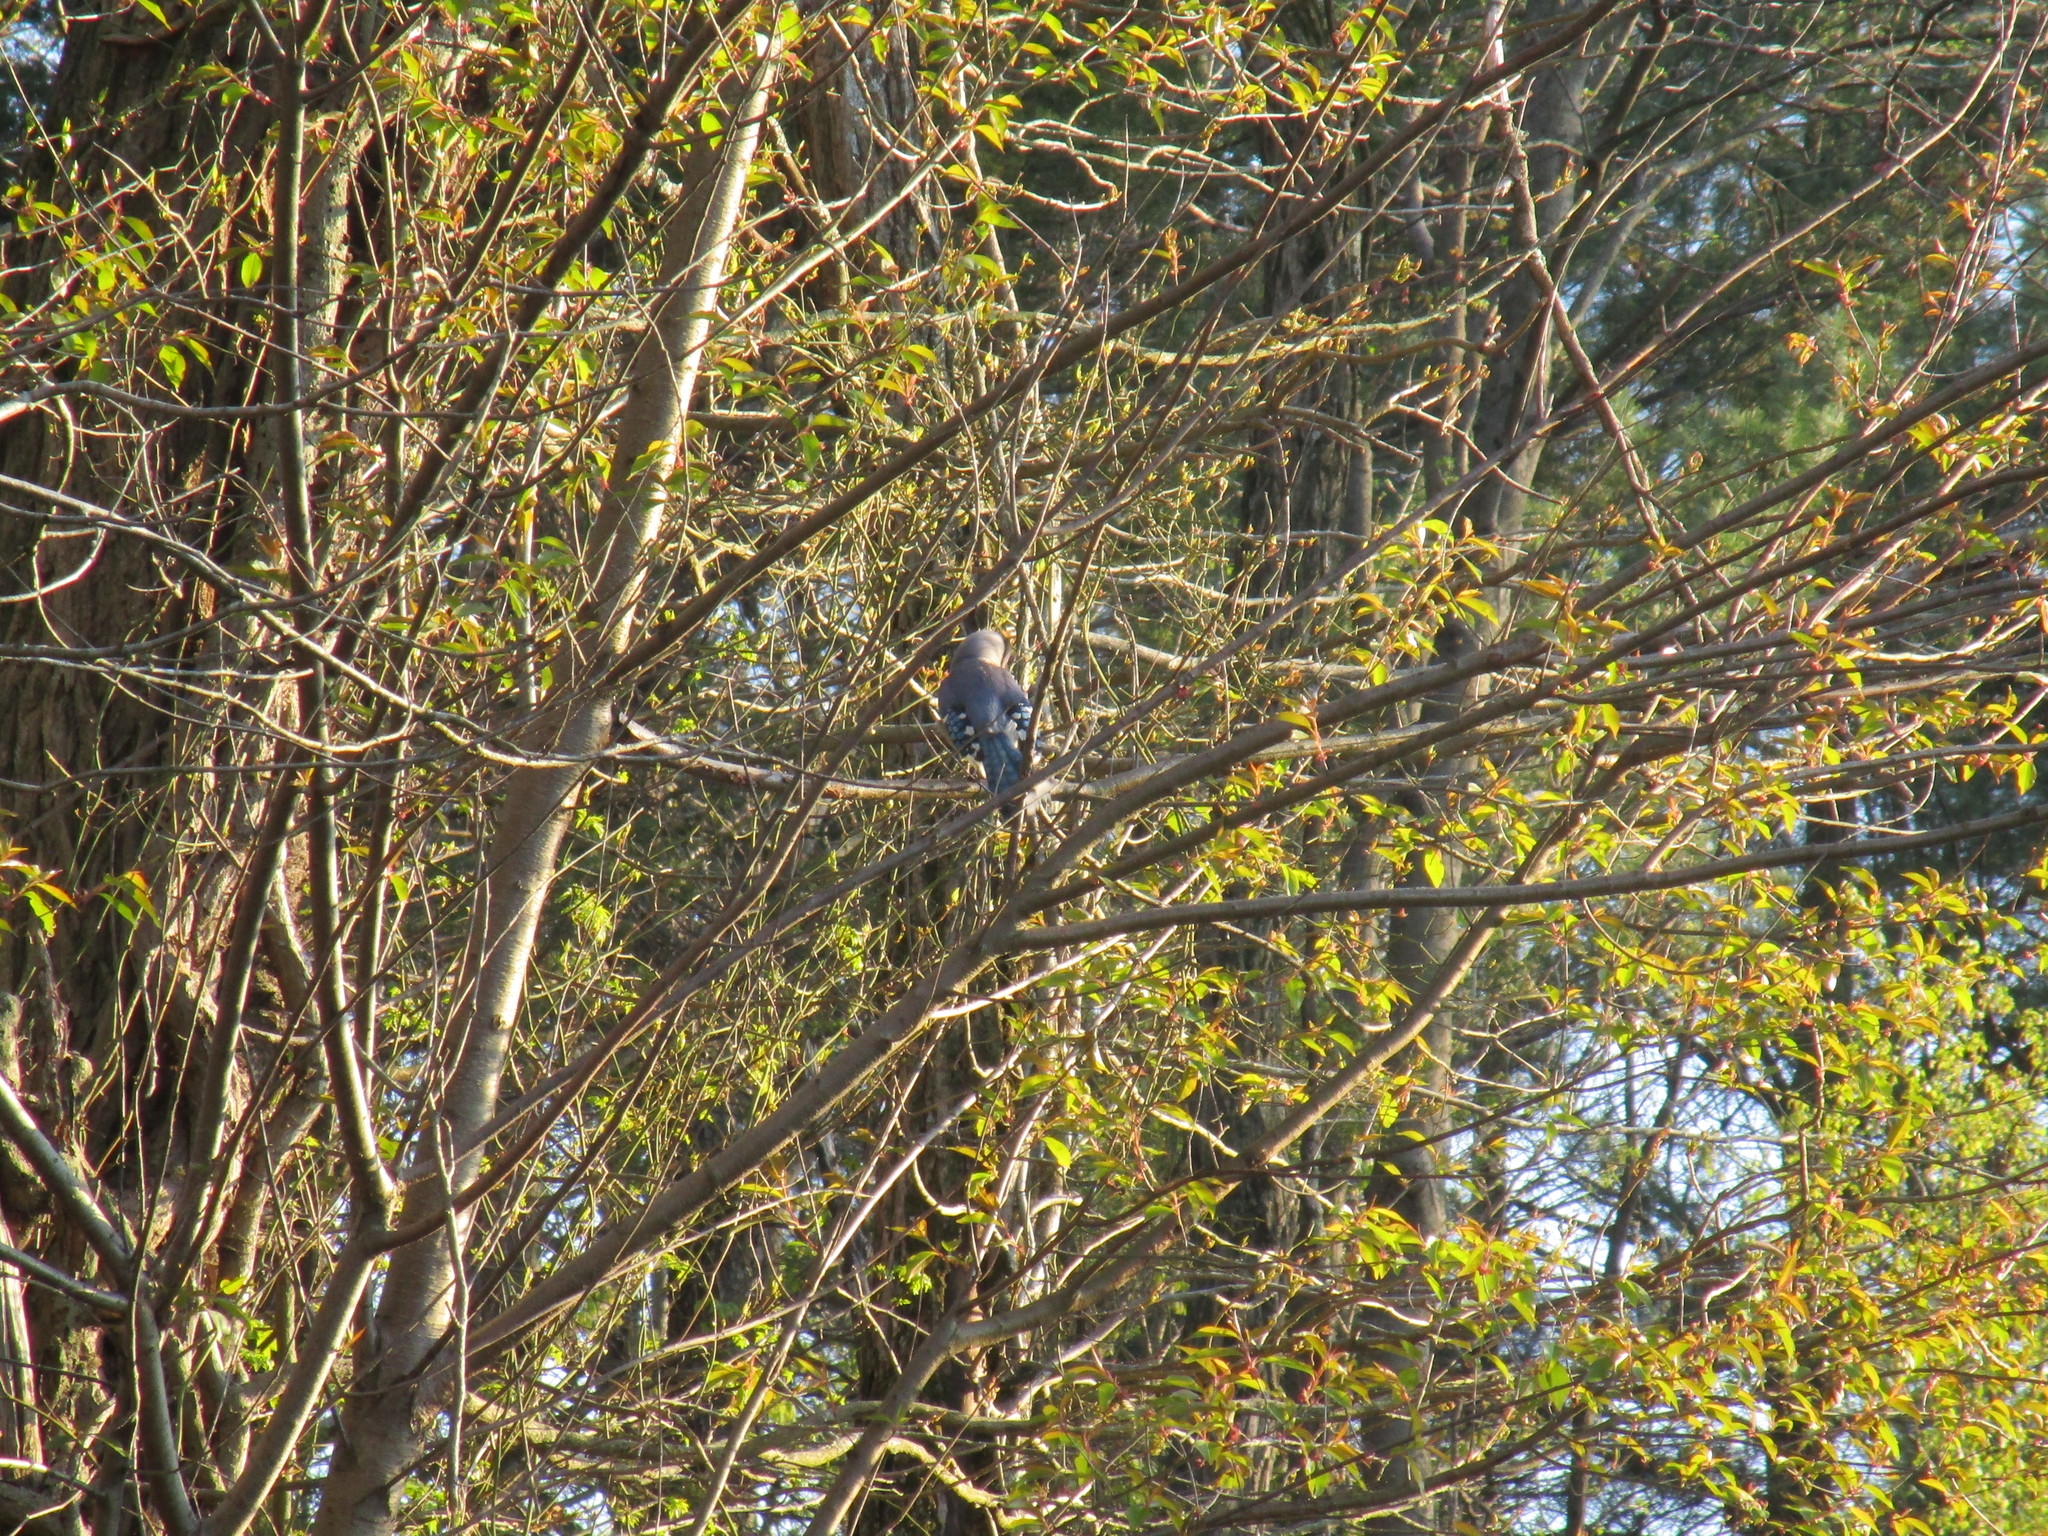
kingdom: Animalia
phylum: Chordata
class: Aves
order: Passeriformes
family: Corvidae
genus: Cyanocitta
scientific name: Cyanocitta cristata
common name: Blue jay
